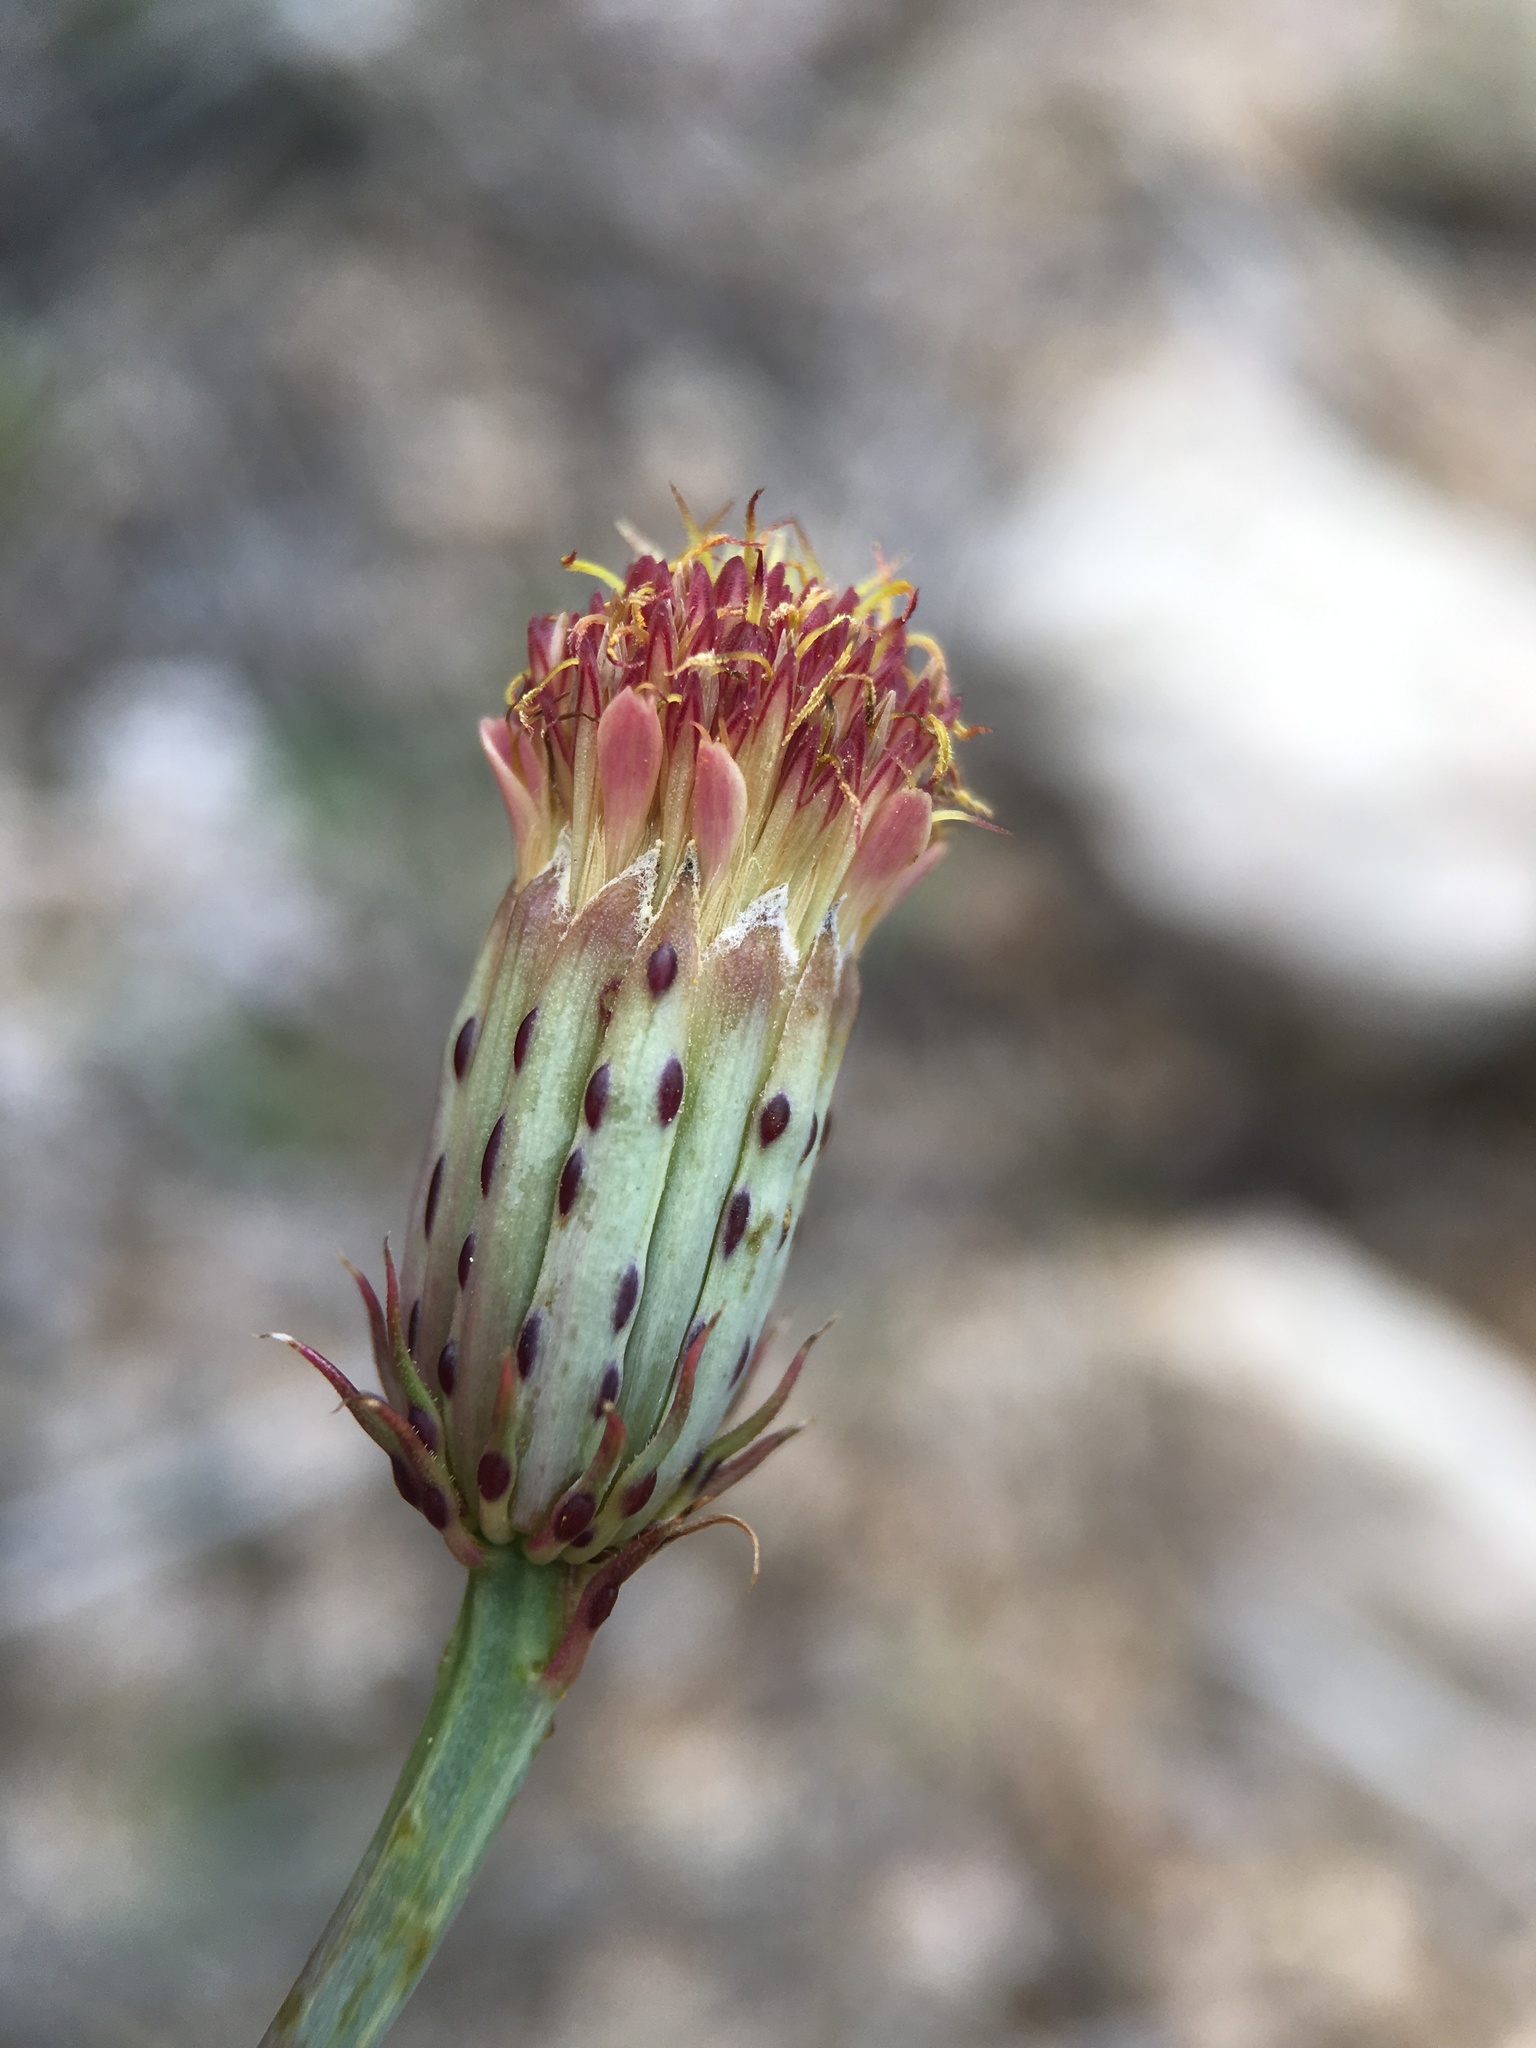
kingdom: Plantae
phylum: Tracheophyta
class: Magnoliopsida
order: Asterales
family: Asteraceae
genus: Adenophyllum
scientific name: Adenophyllum porophylloides
